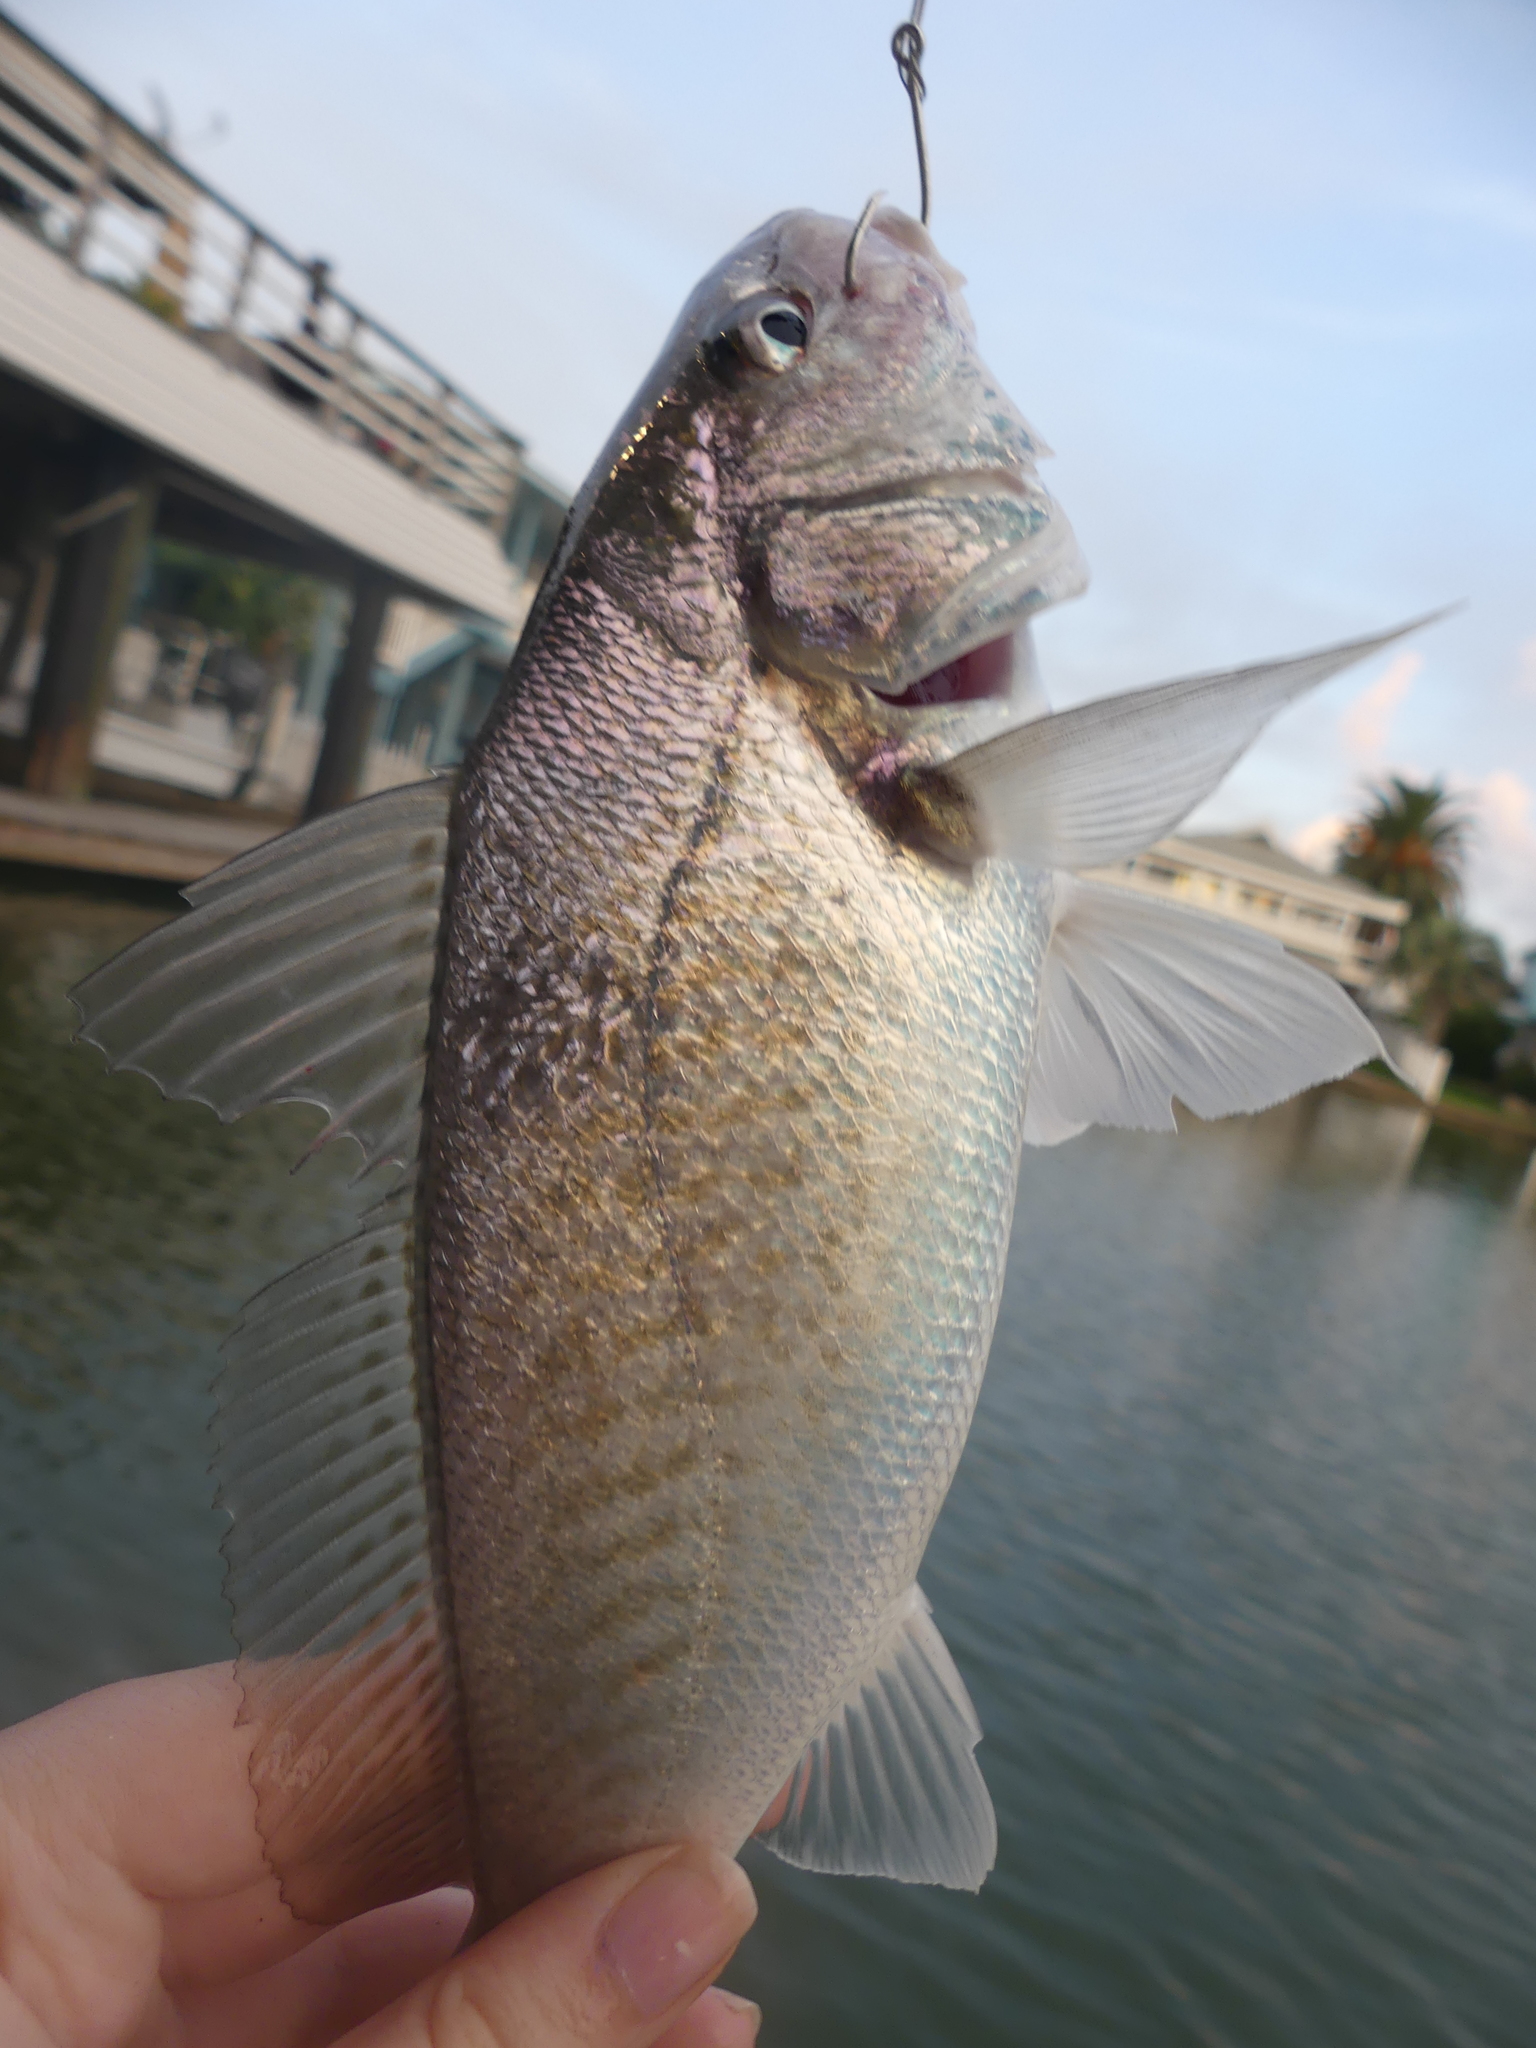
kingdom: Animalia
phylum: Chordata
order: Perciformes
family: Sciaenidae
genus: Micropogonias
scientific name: Micropogonias undulatus
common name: Atlantic croaker
